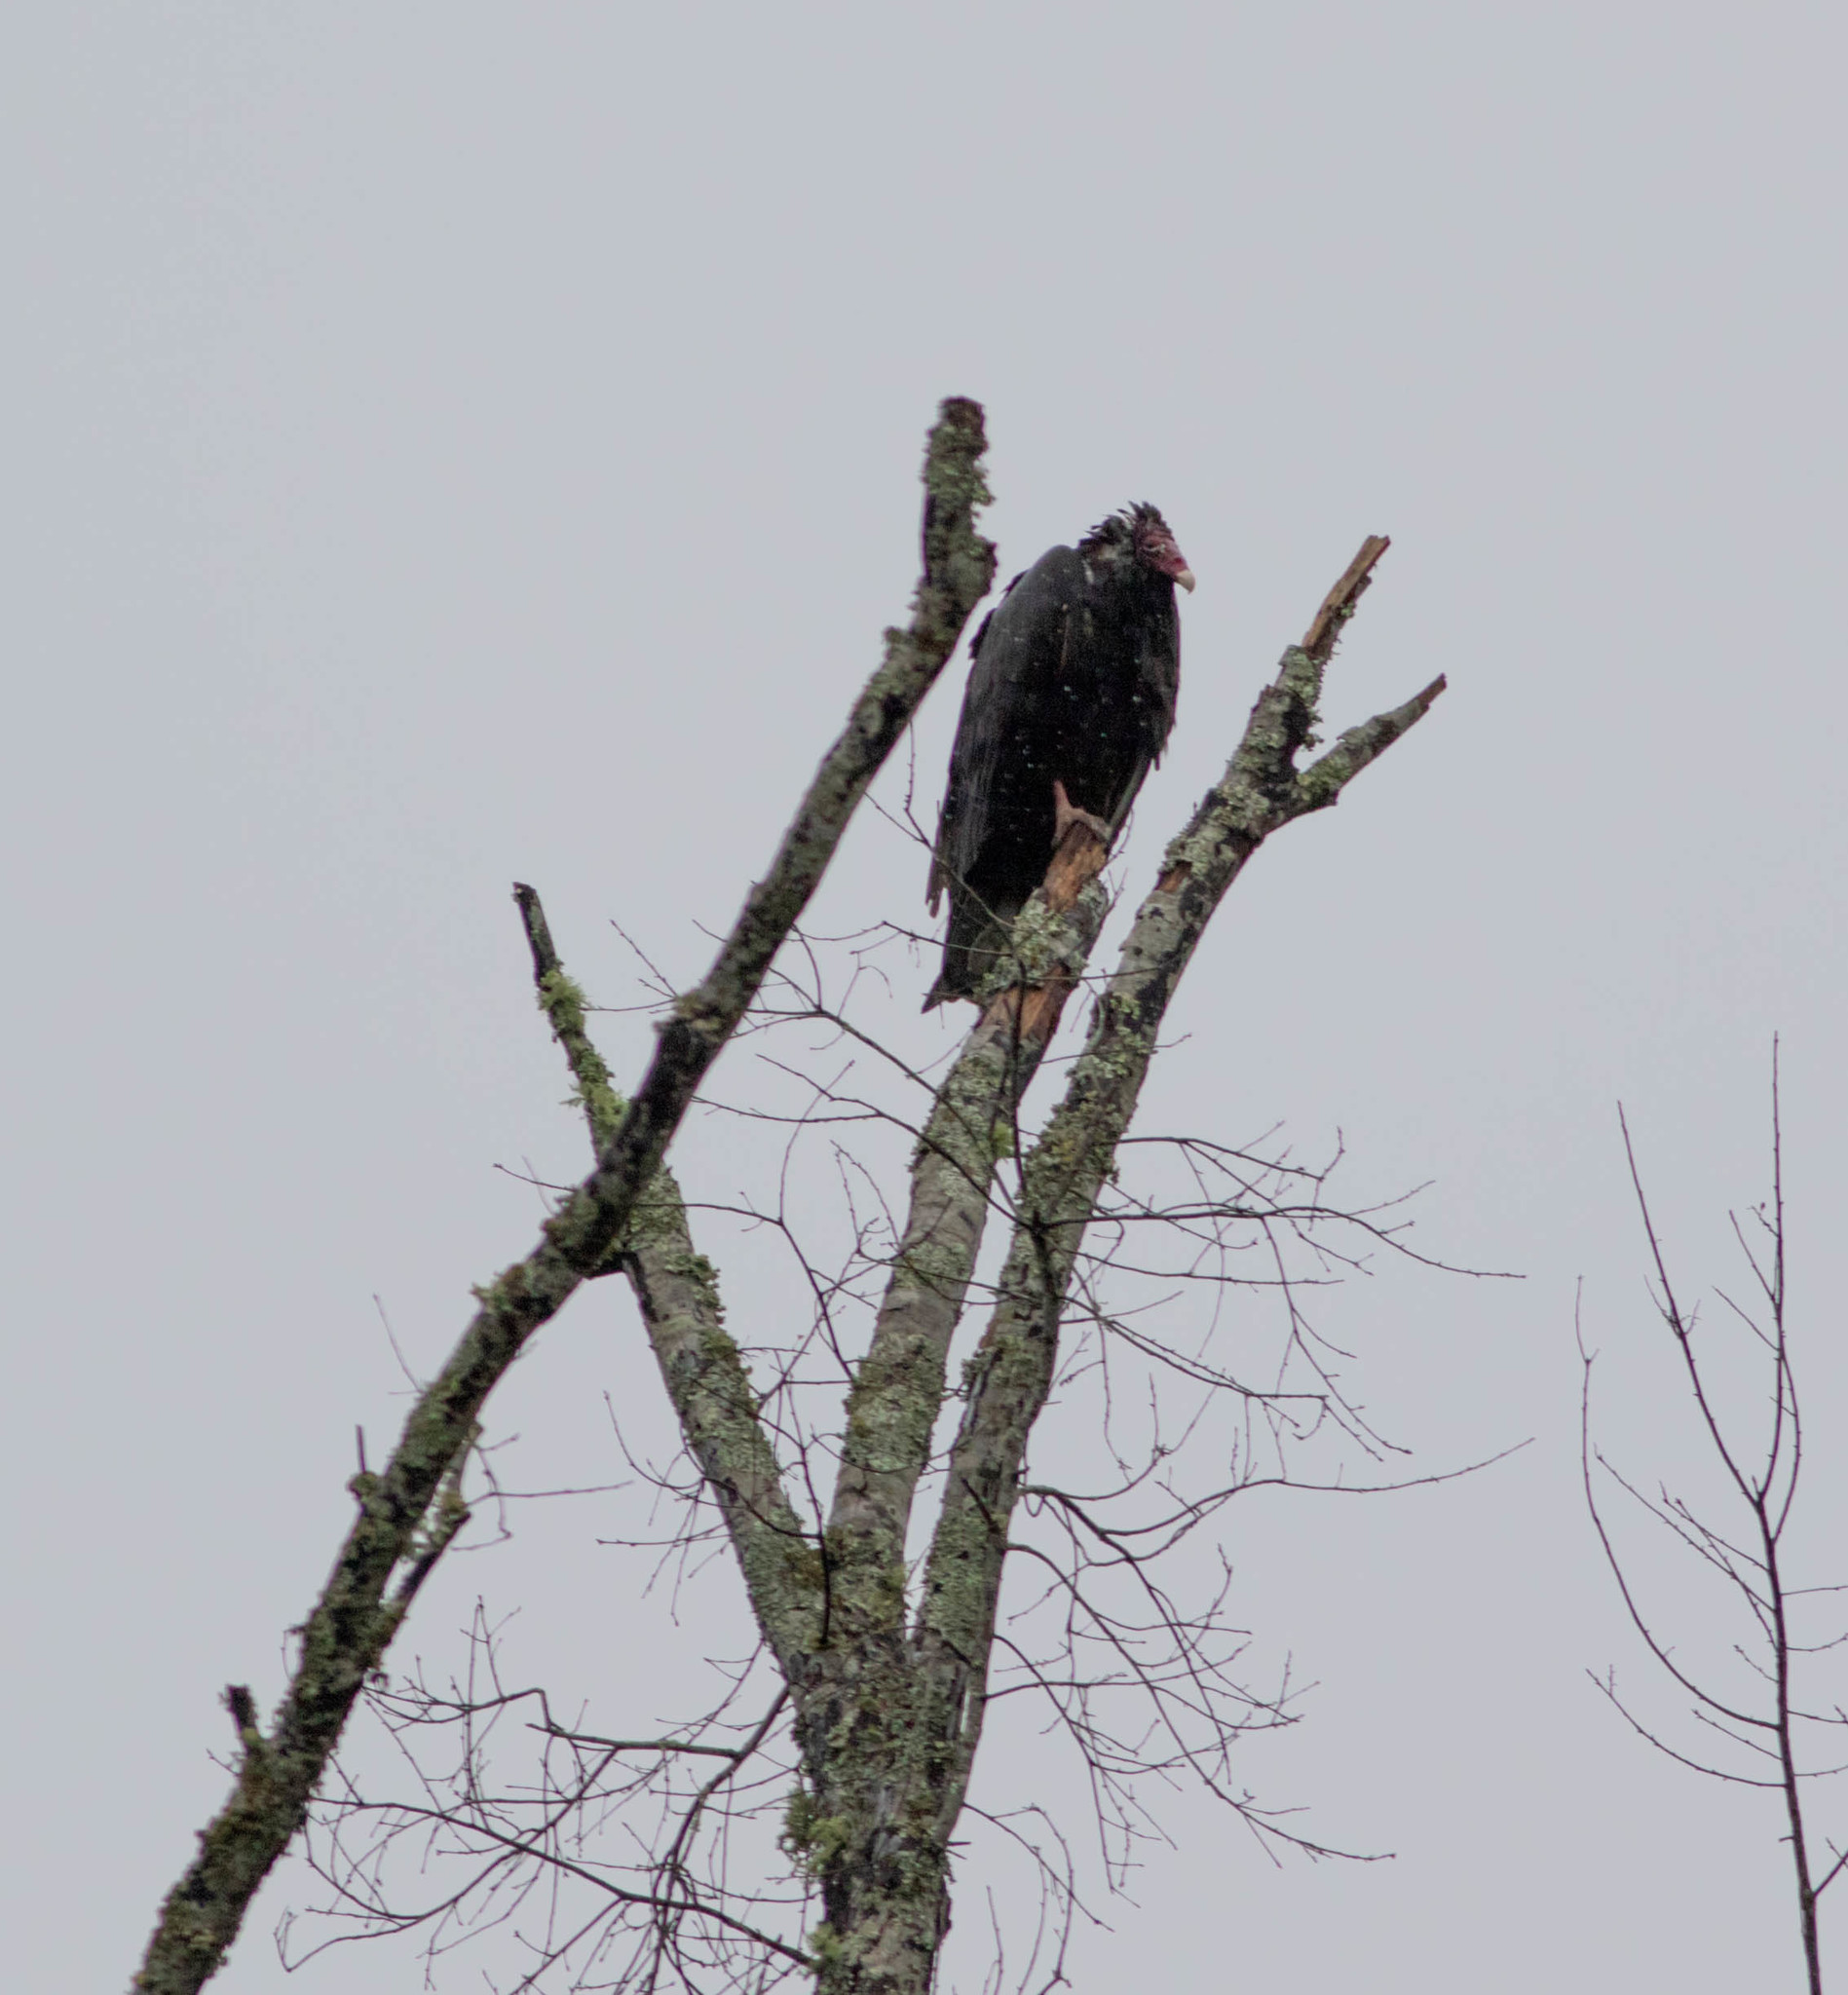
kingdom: Animalia
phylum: Chordata
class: Aves
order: Accipitriformes
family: Cathartidae
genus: Cathartes
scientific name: Cathartes aura
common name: Turkey vulture
